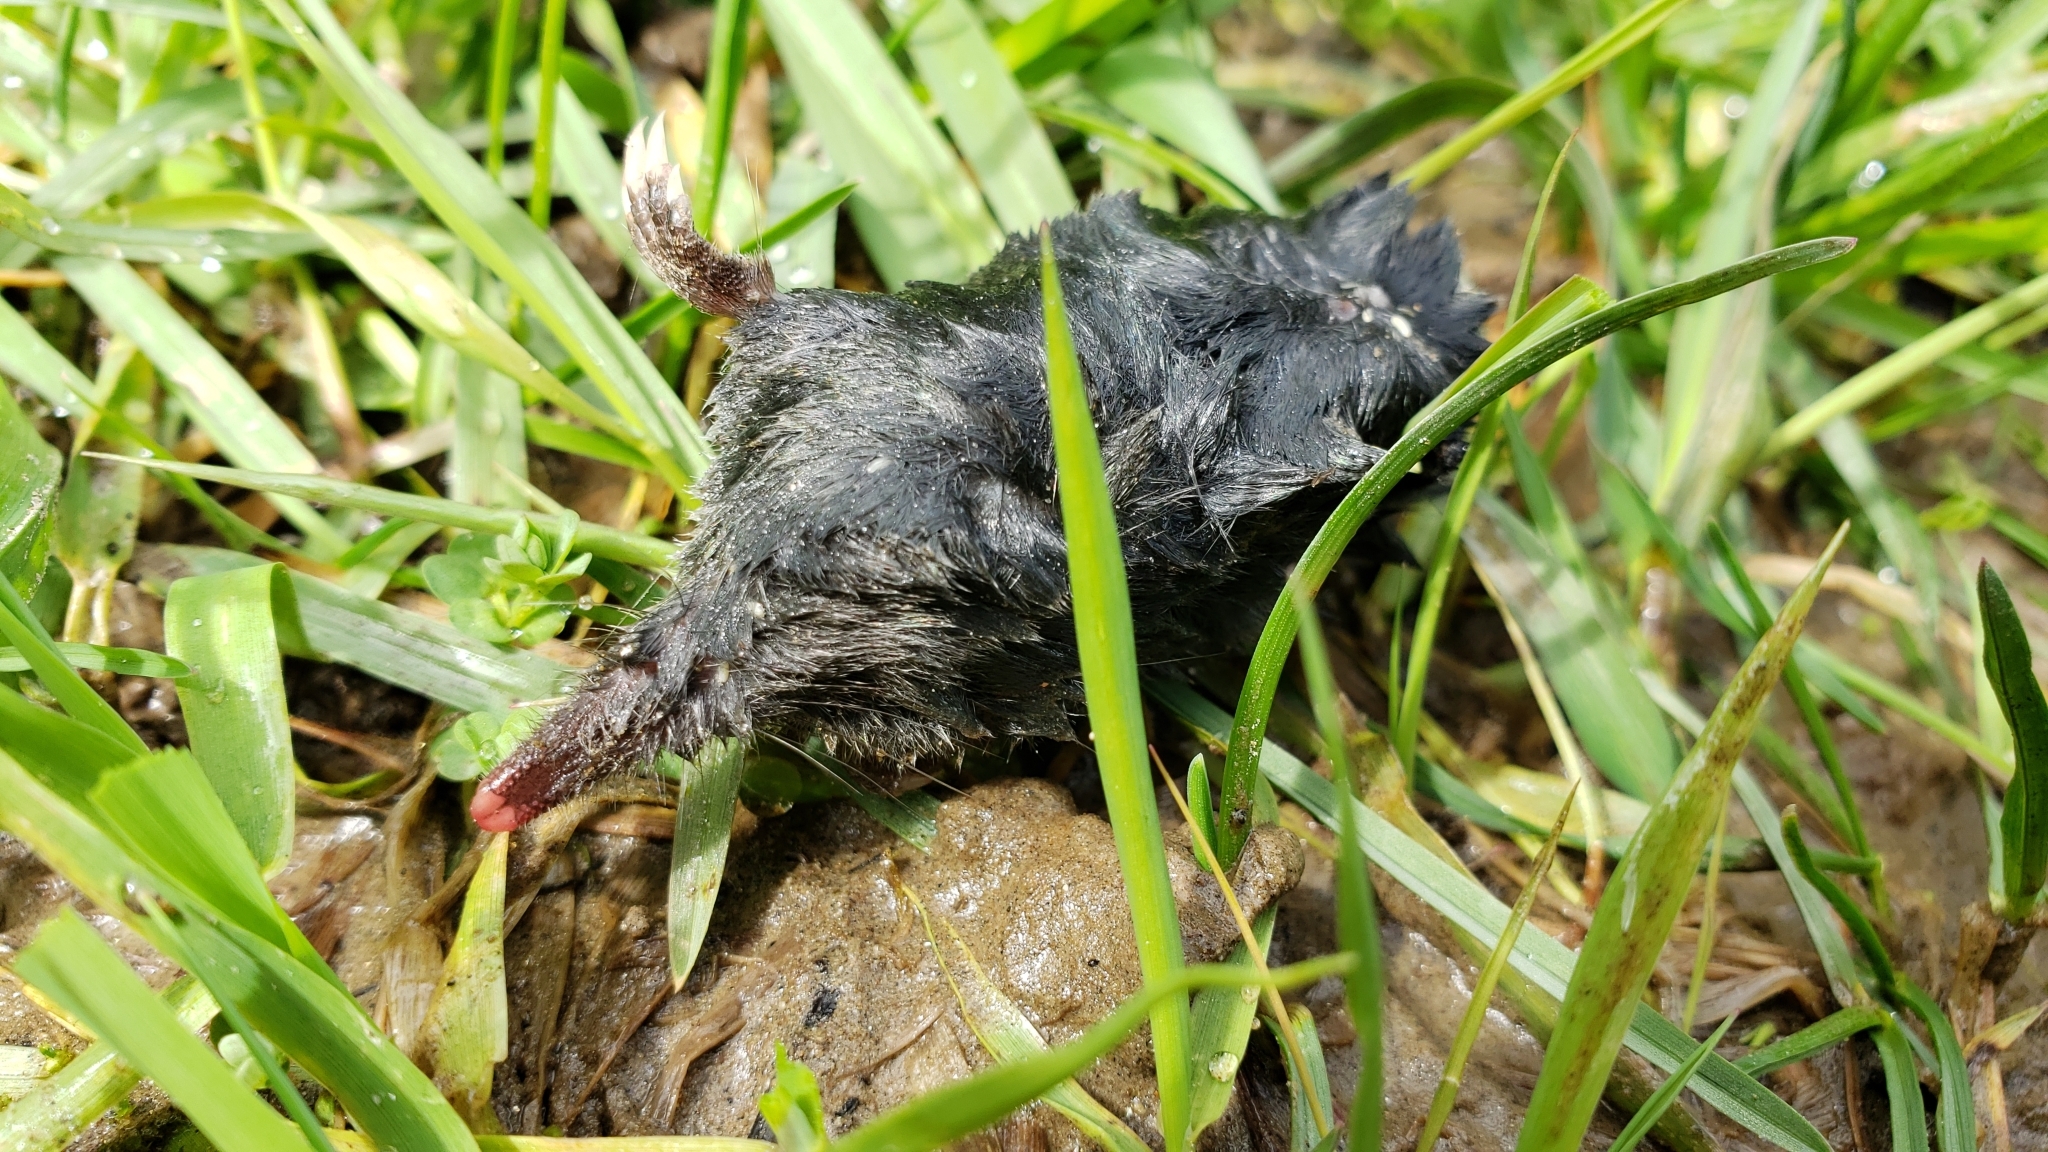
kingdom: Animalia
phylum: Chordata
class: Mammalia
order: Soricomorpha
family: Talpidae
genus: Neurotrichus
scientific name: Neurotrichus gibbsii
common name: American shrew mole
